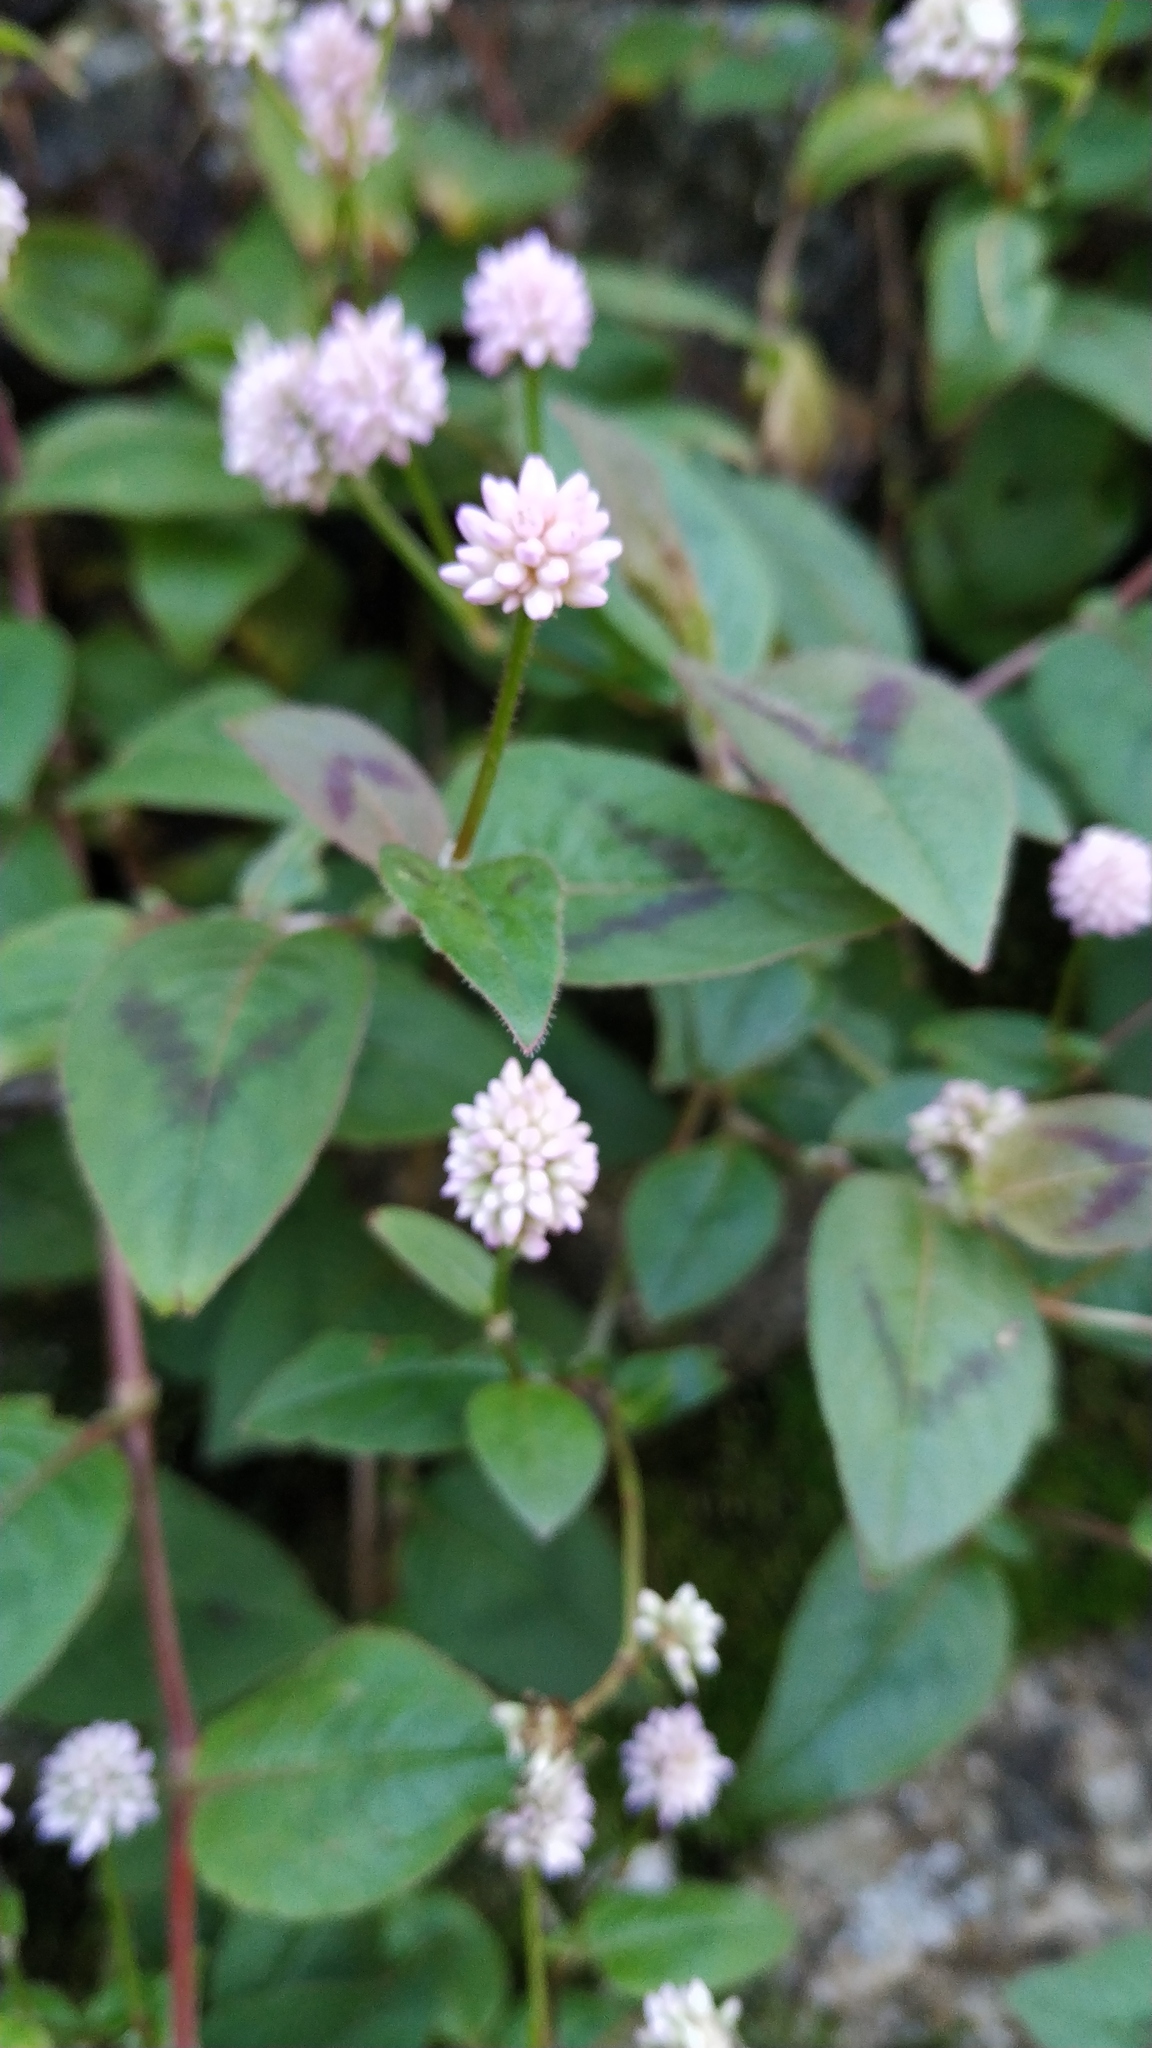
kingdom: Plantae
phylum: Tracheophyta
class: Magnoliopsida
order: Caryophyllales
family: Polygonaceae
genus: Persicaria
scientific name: Persicaria capitata
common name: Pinkhead smartweed
